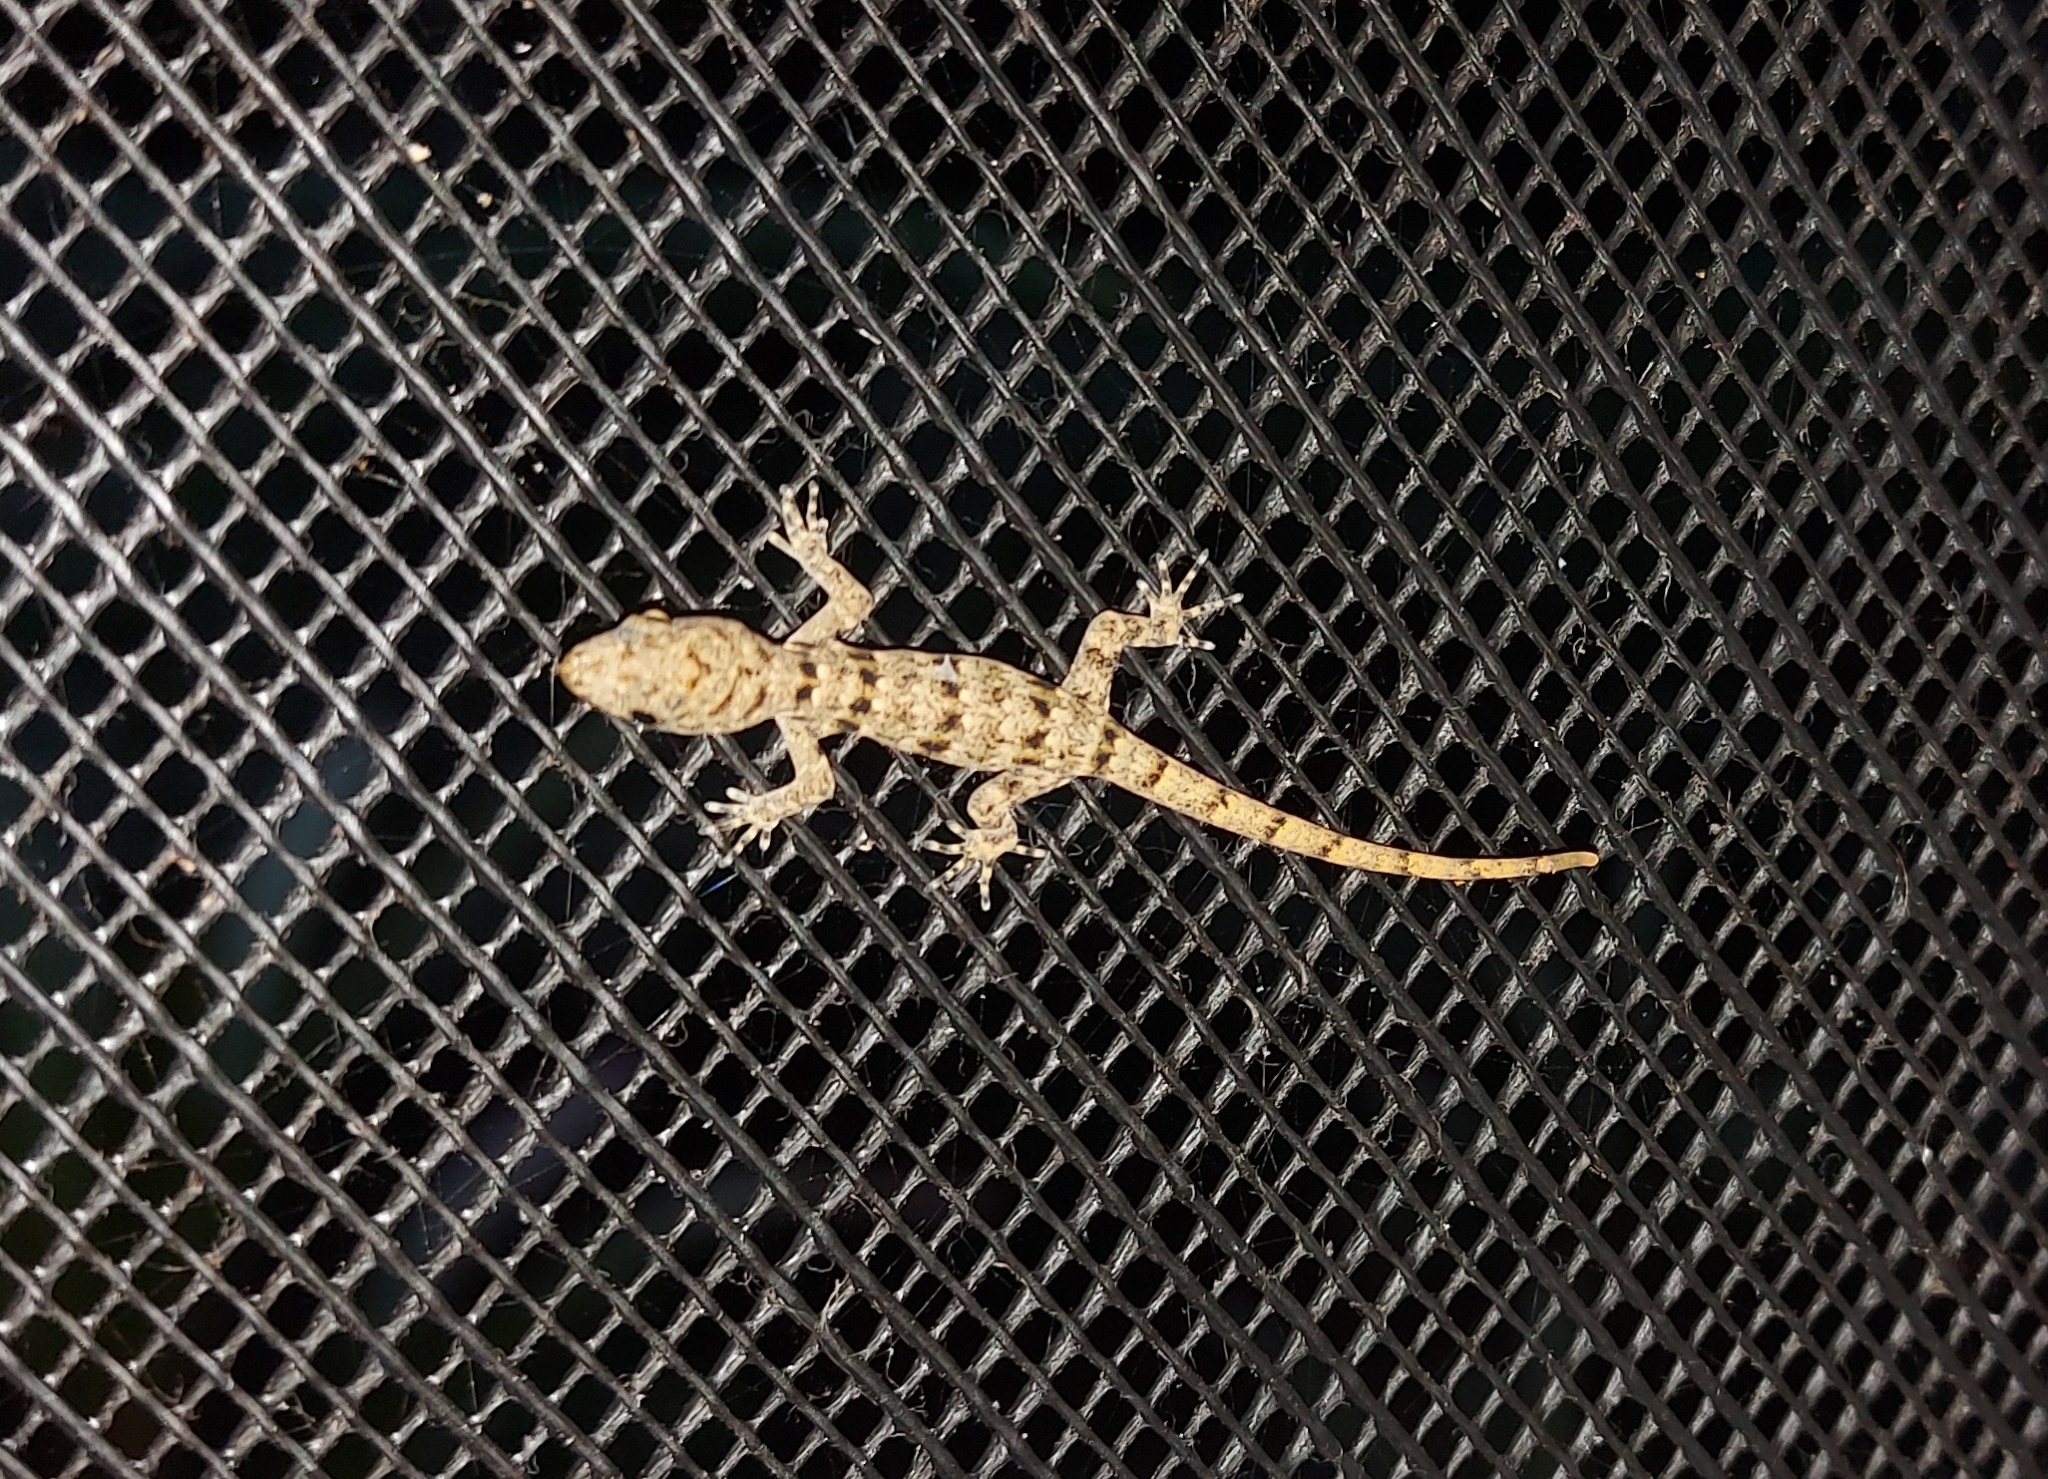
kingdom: Animalia
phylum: Chordata
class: Squamata
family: Sphaerodactylidae
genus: Gonatodes
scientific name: Gonatodes albogularis
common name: Yellow-headed gecko
